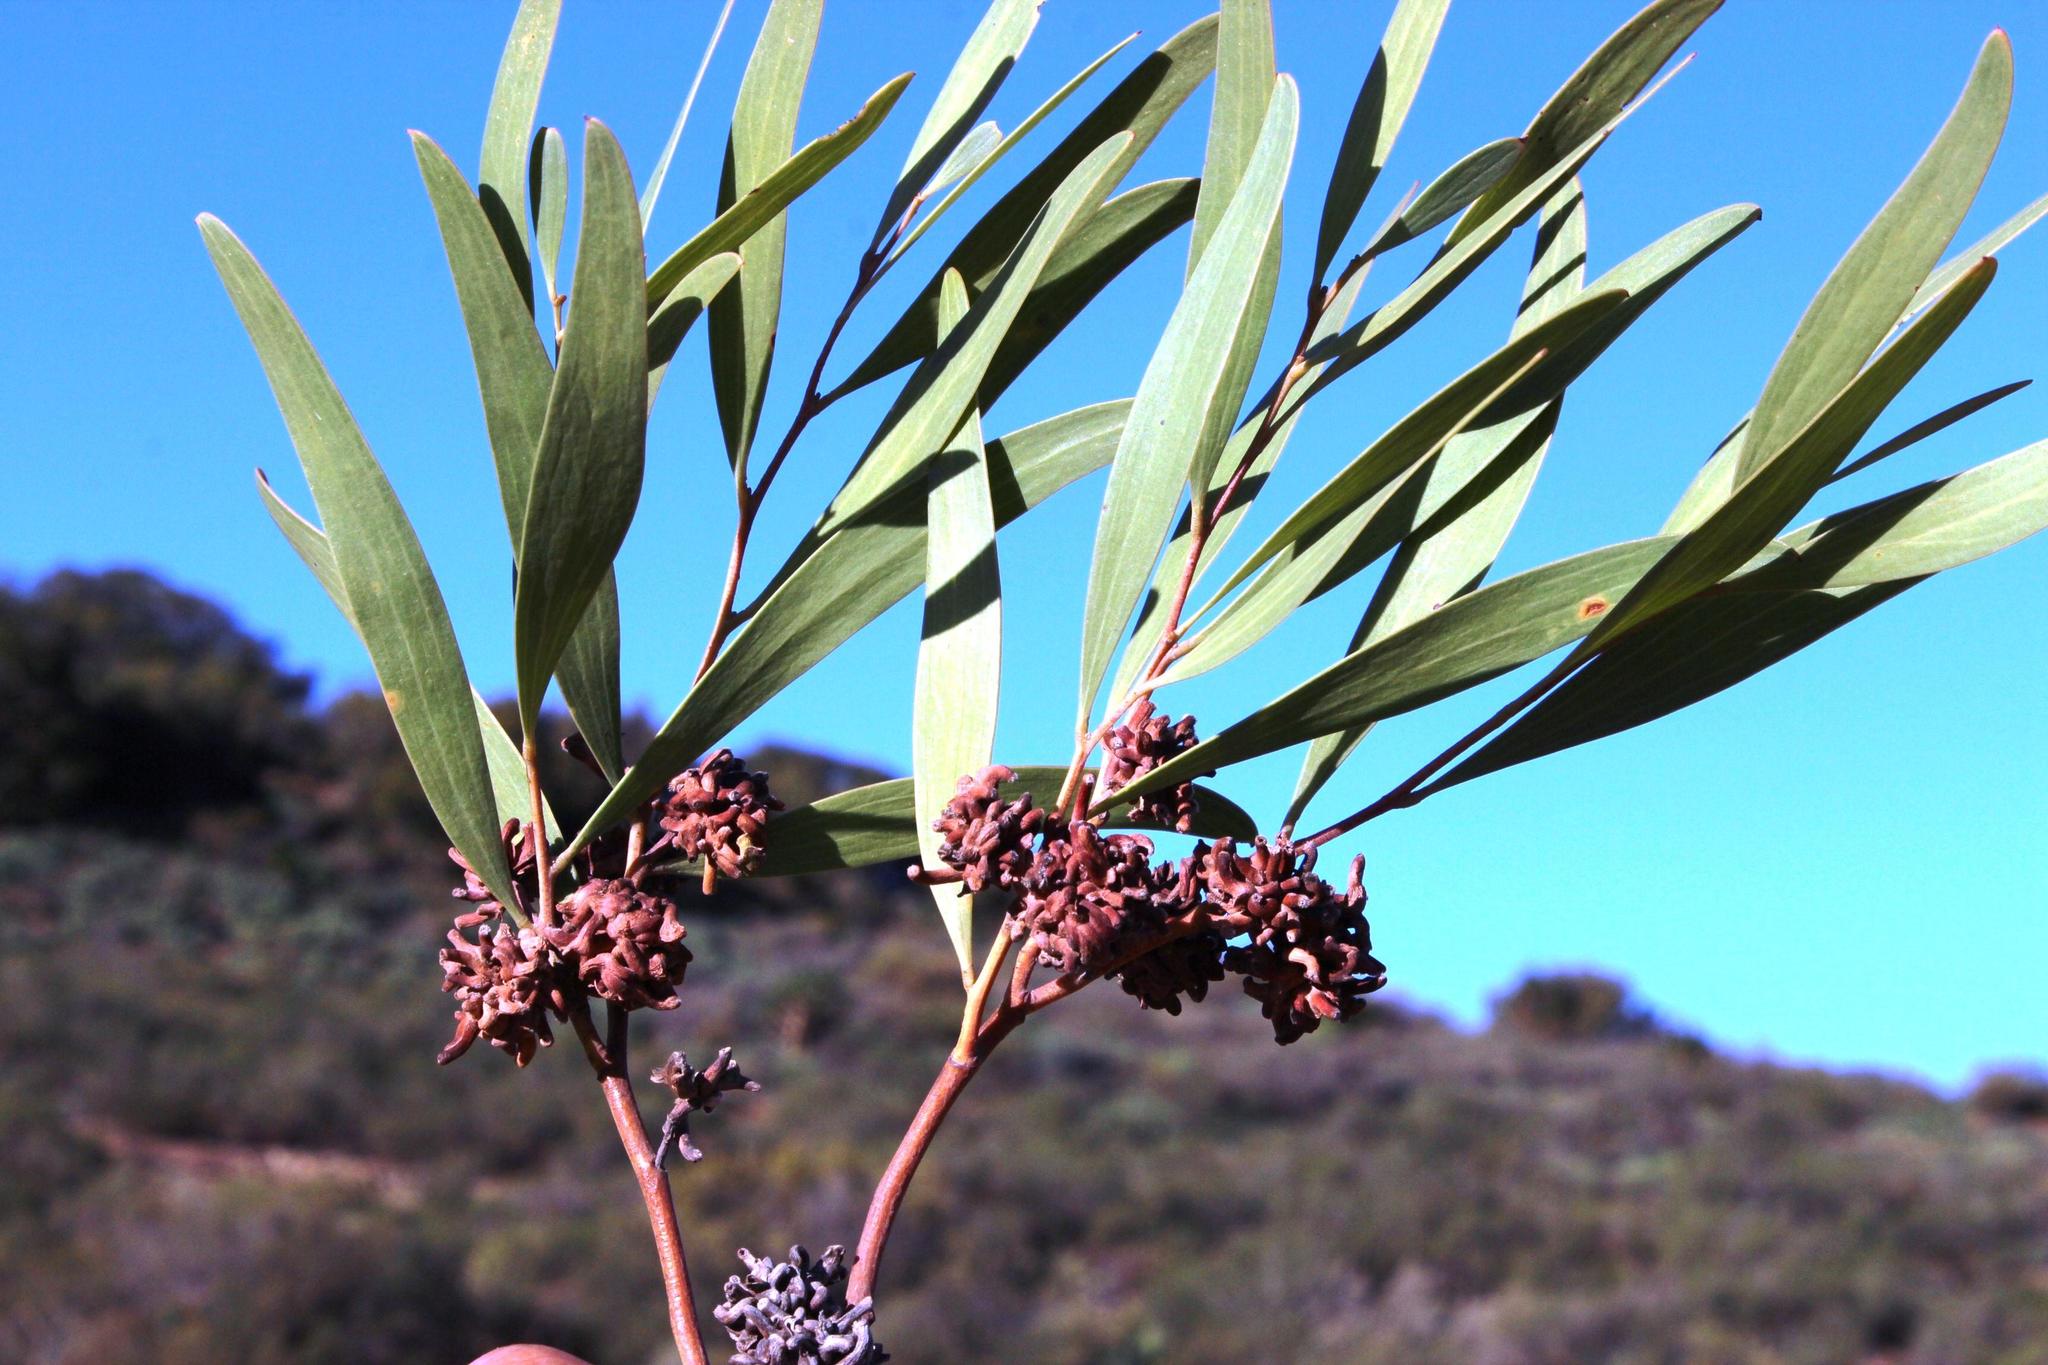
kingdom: Plantae
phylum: Tracheophyta
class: Magnoliopsida
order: Fabales
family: Fabaceae
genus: Acacia
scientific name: Acacia cyclops
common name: Coastal wattle
